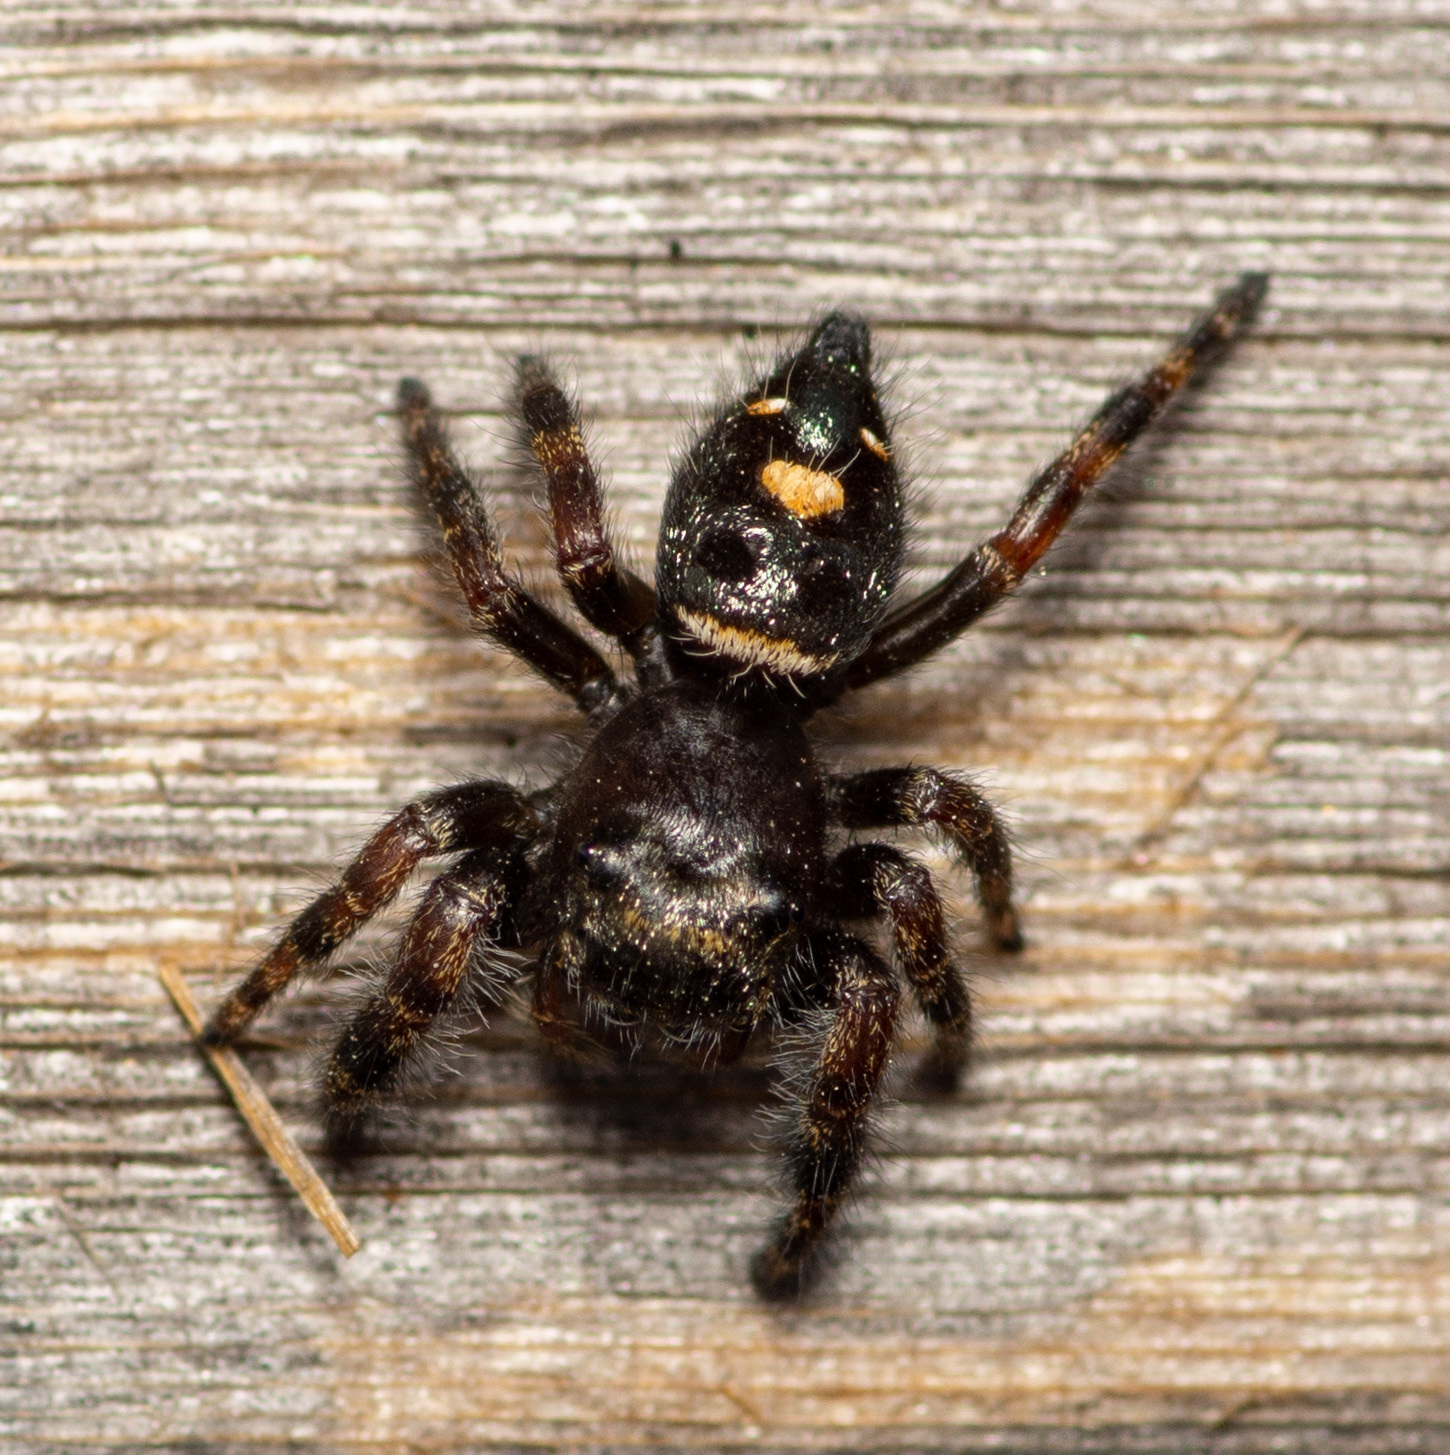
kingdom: Animalia
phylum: Arthropoda
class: Arachnida
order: Araneae
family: Salticidae
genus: Phidippus
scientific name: Phidippus audax
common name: Bold jumper
